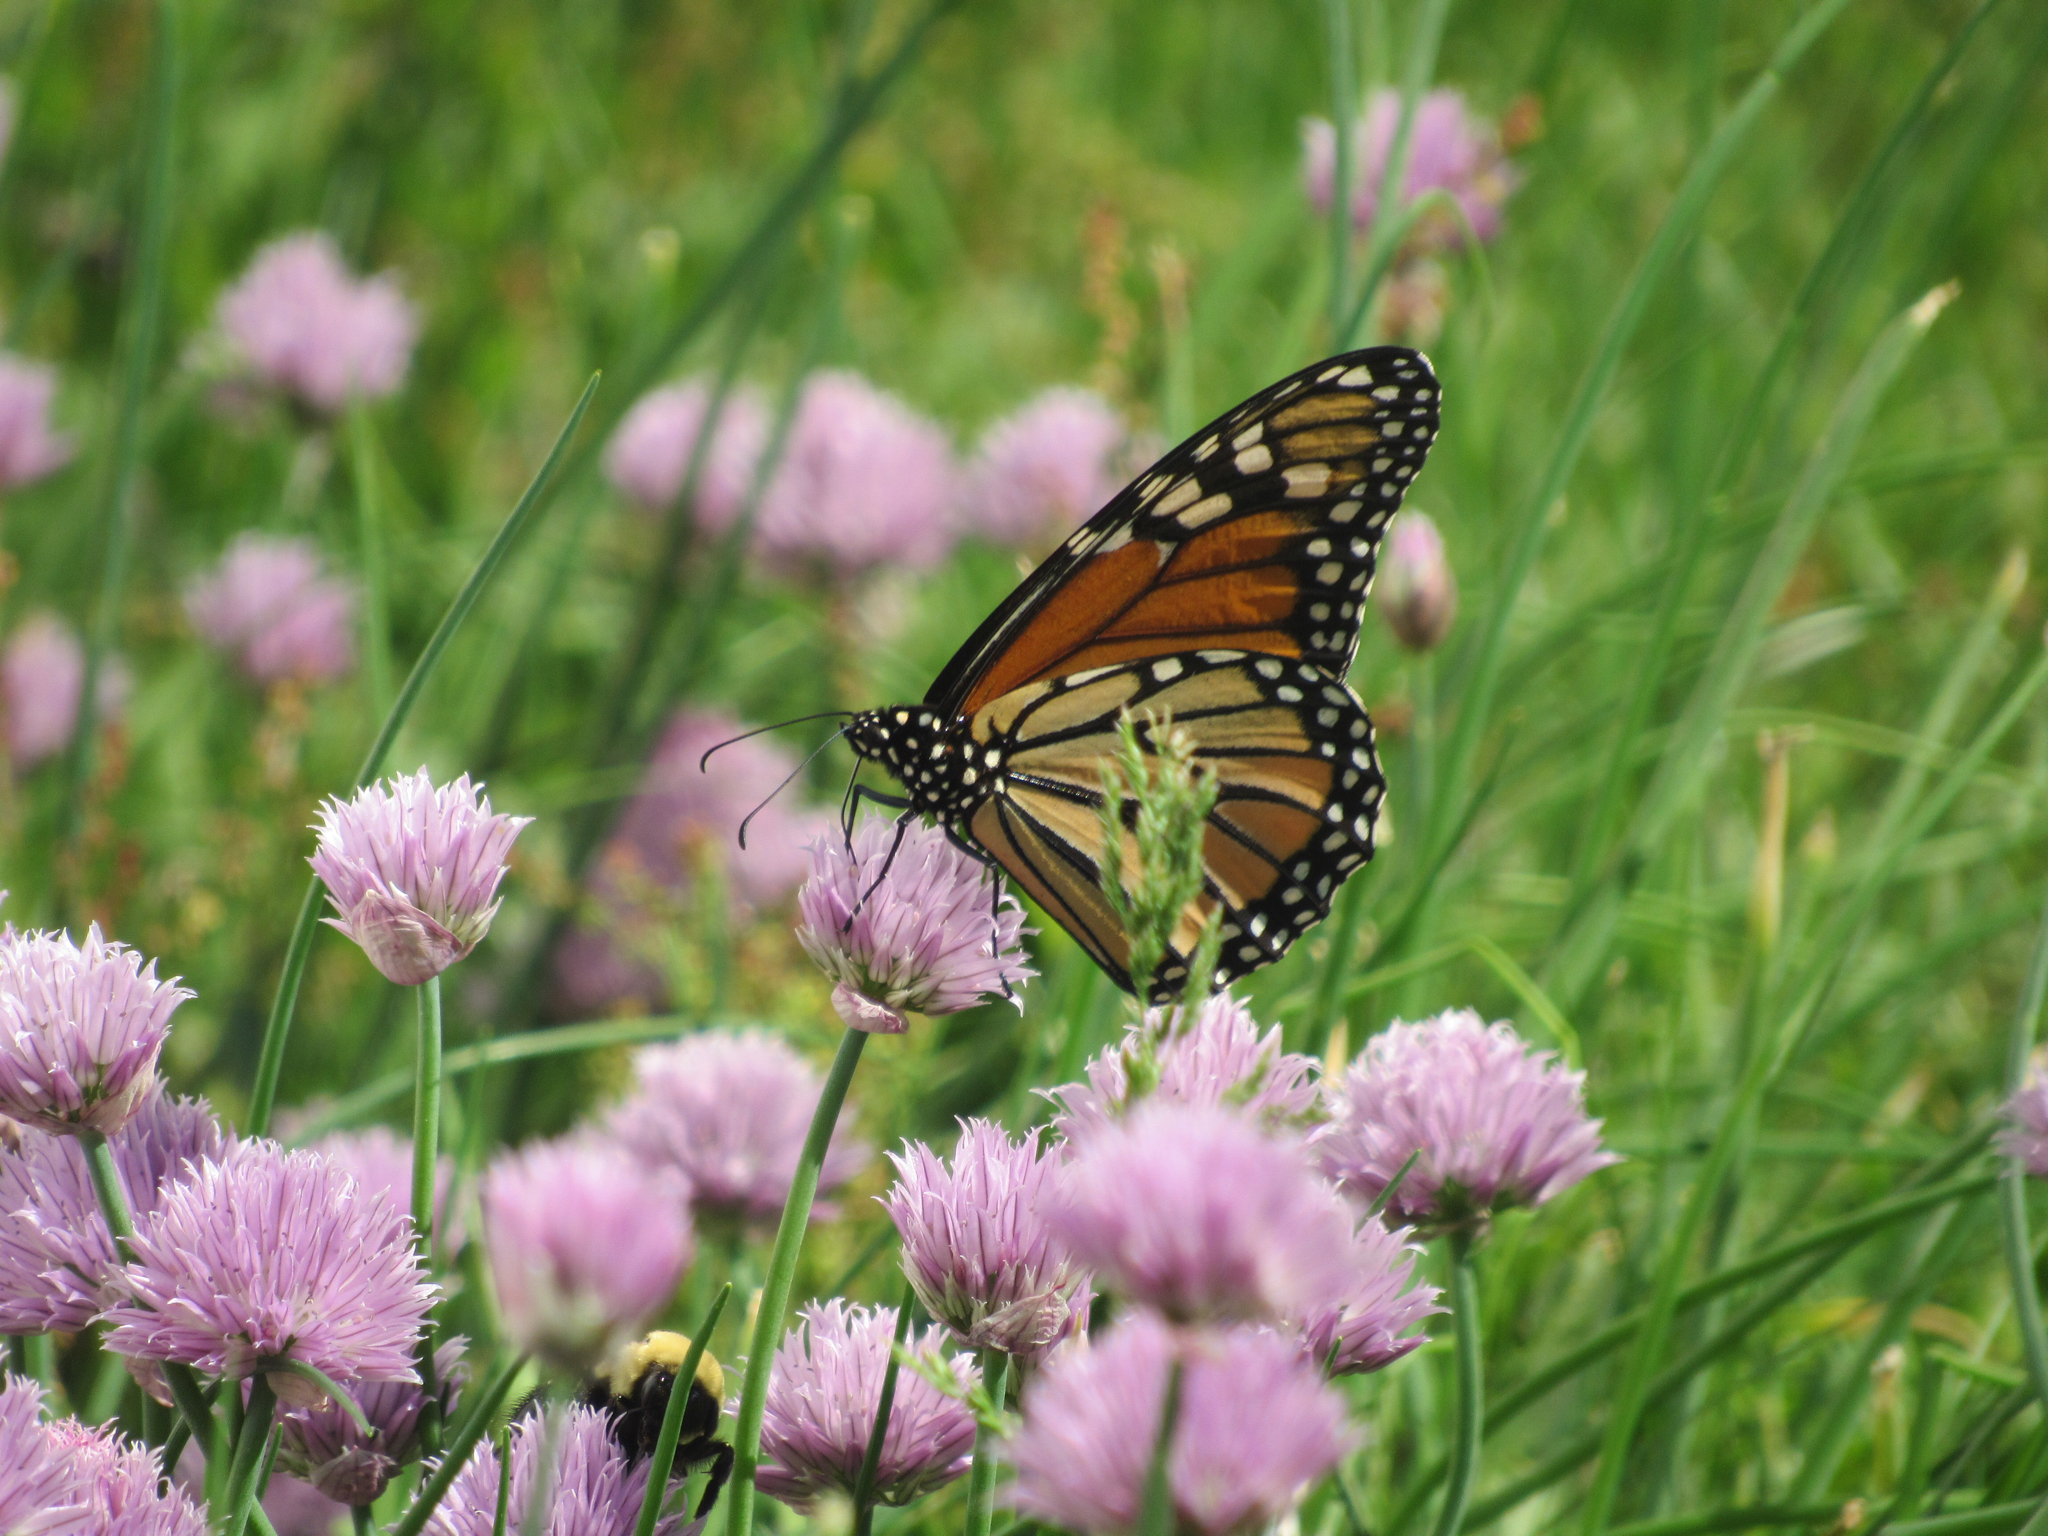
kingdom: Animalia
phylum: Arthropoda
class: Insecta
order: Lepidoptera
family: Nymphalidae
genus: Danaus
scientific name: Danaus plexippus
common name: Monarch
